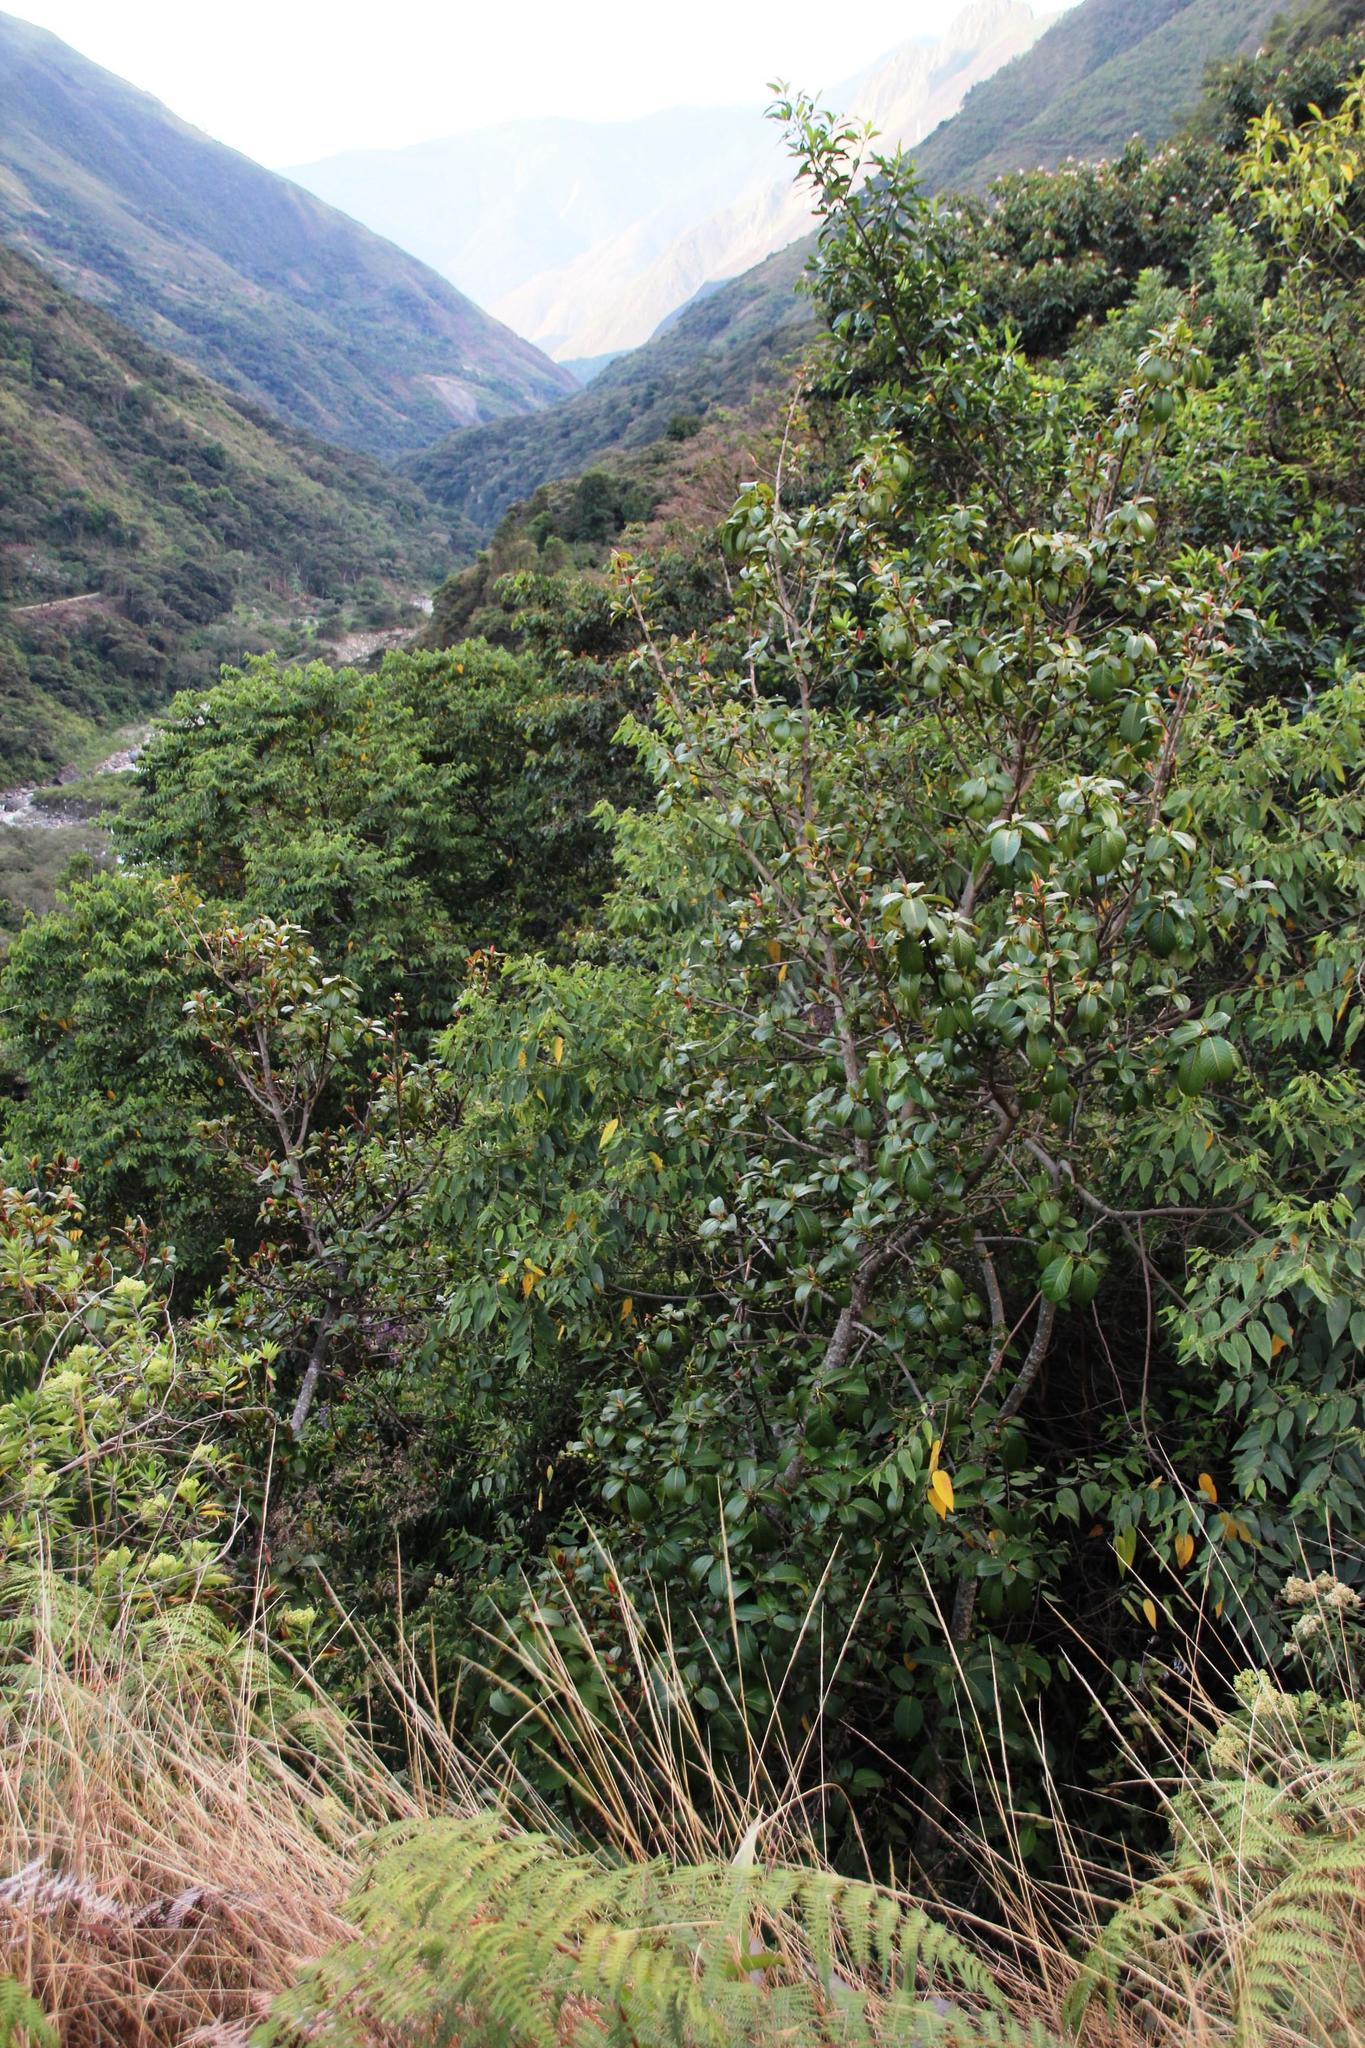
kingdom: Plantae
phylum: Tracheophyta
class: Magnoliopsida
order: Rosales
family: Moraceae
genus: Ficus
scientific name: Ficus panurensis
